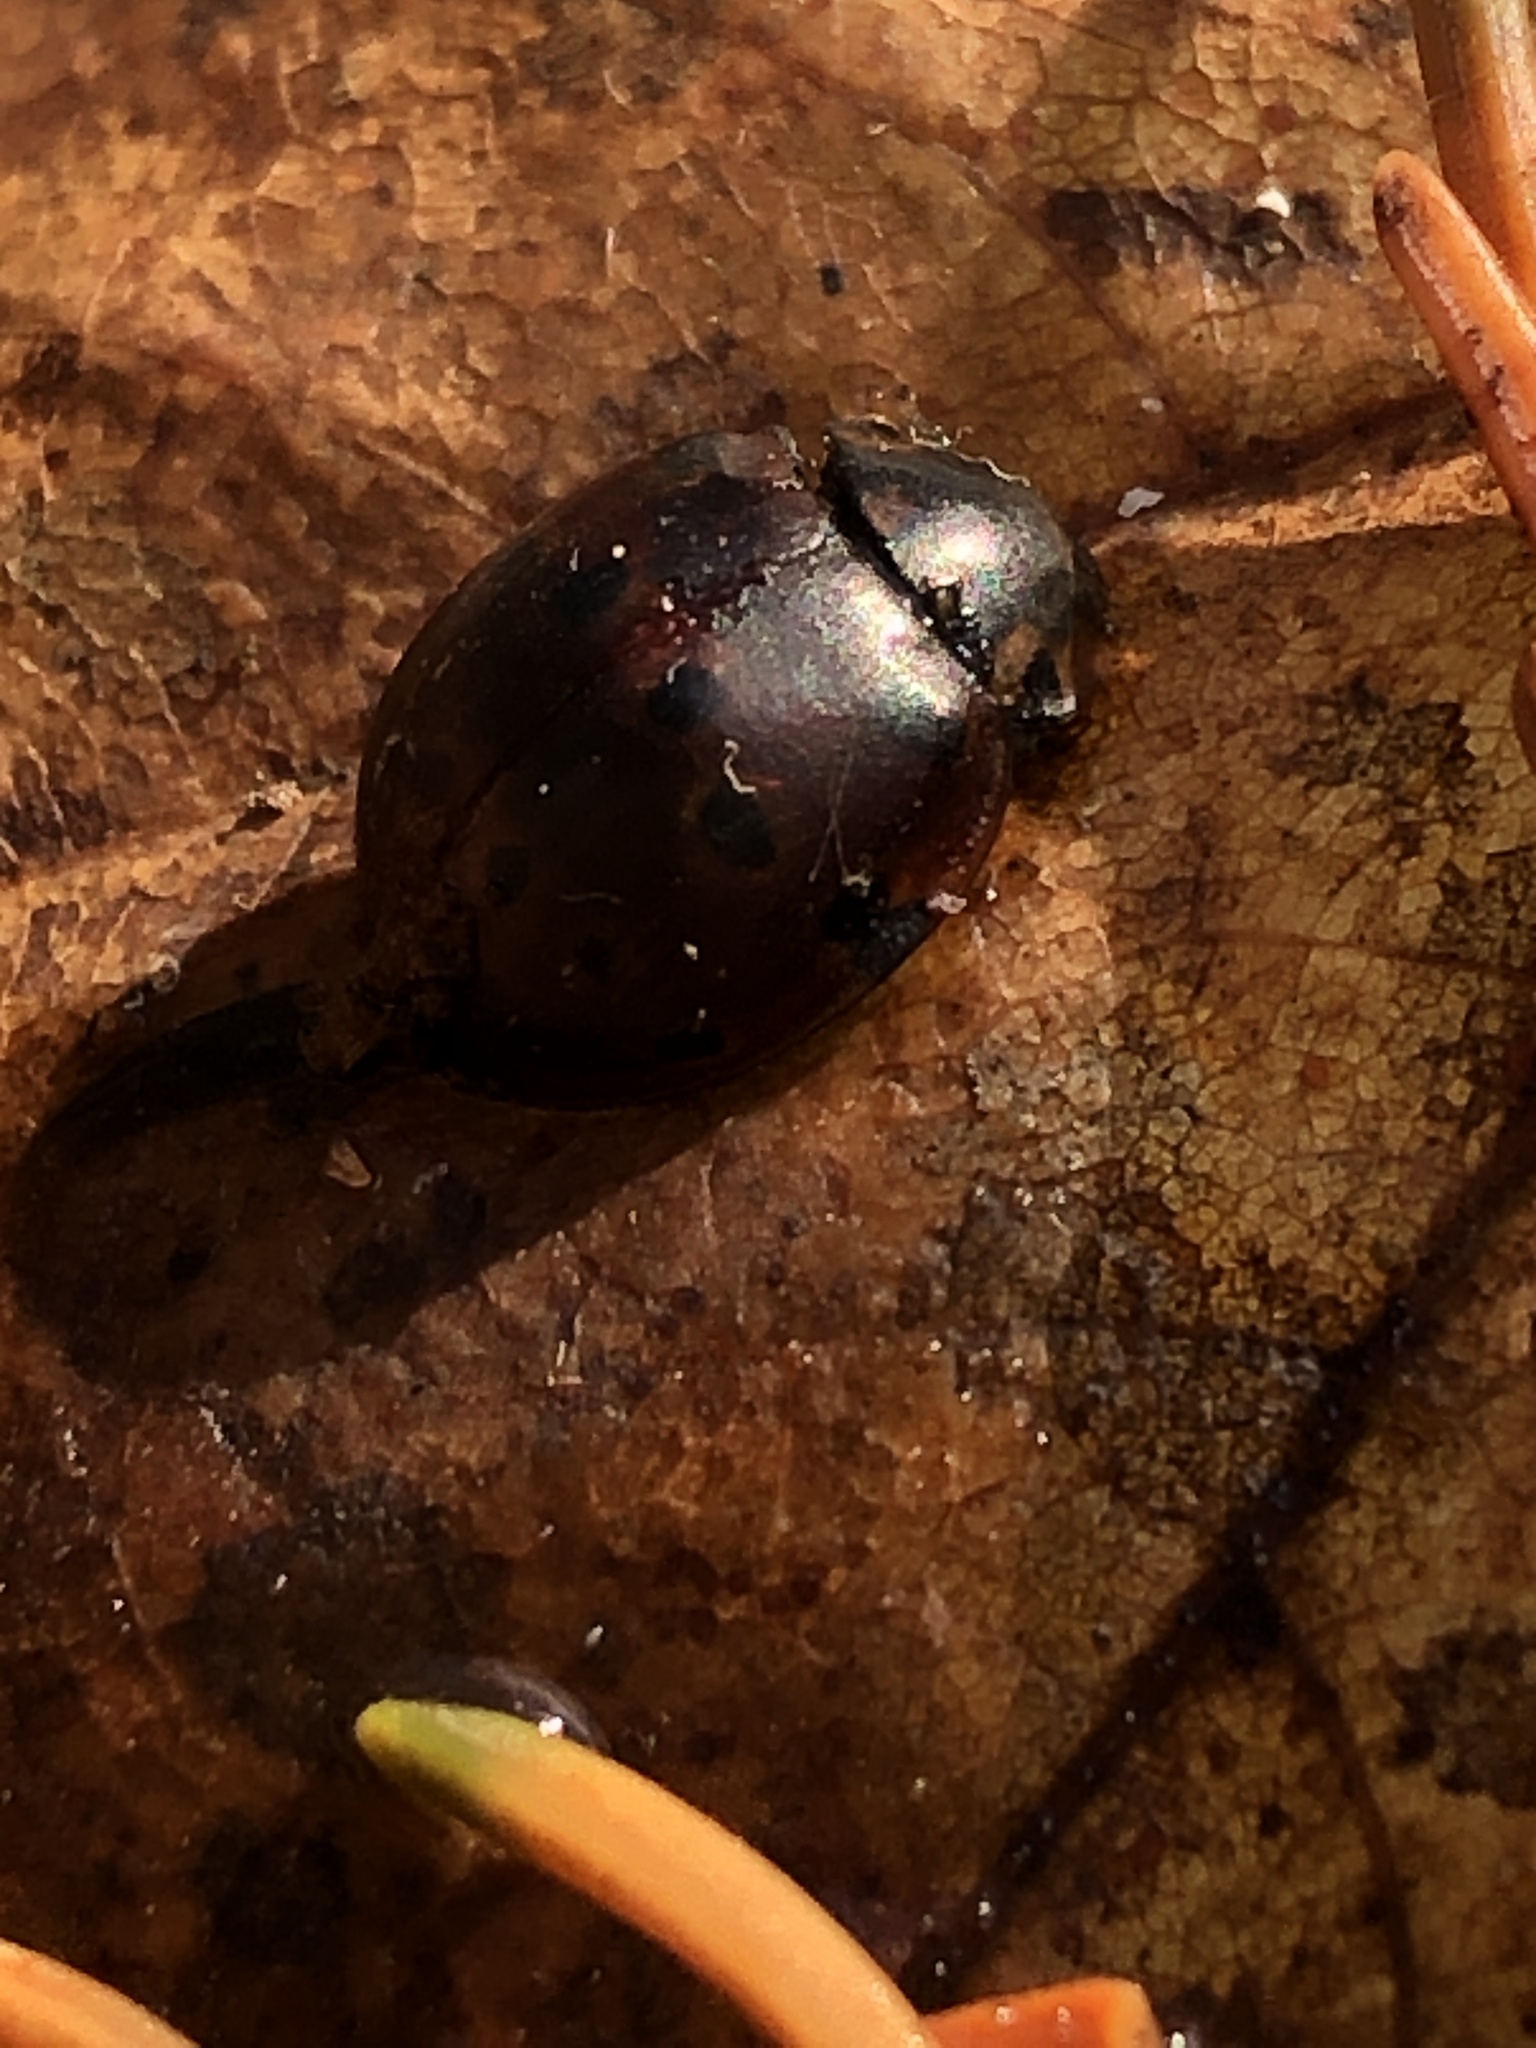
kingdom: Animalia
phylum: Arthropoda
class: Insecta
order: Coleoptera
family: Coccinellidae
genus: Anatis
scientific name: Anatis mali
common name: Eye-spotted lady beetle
